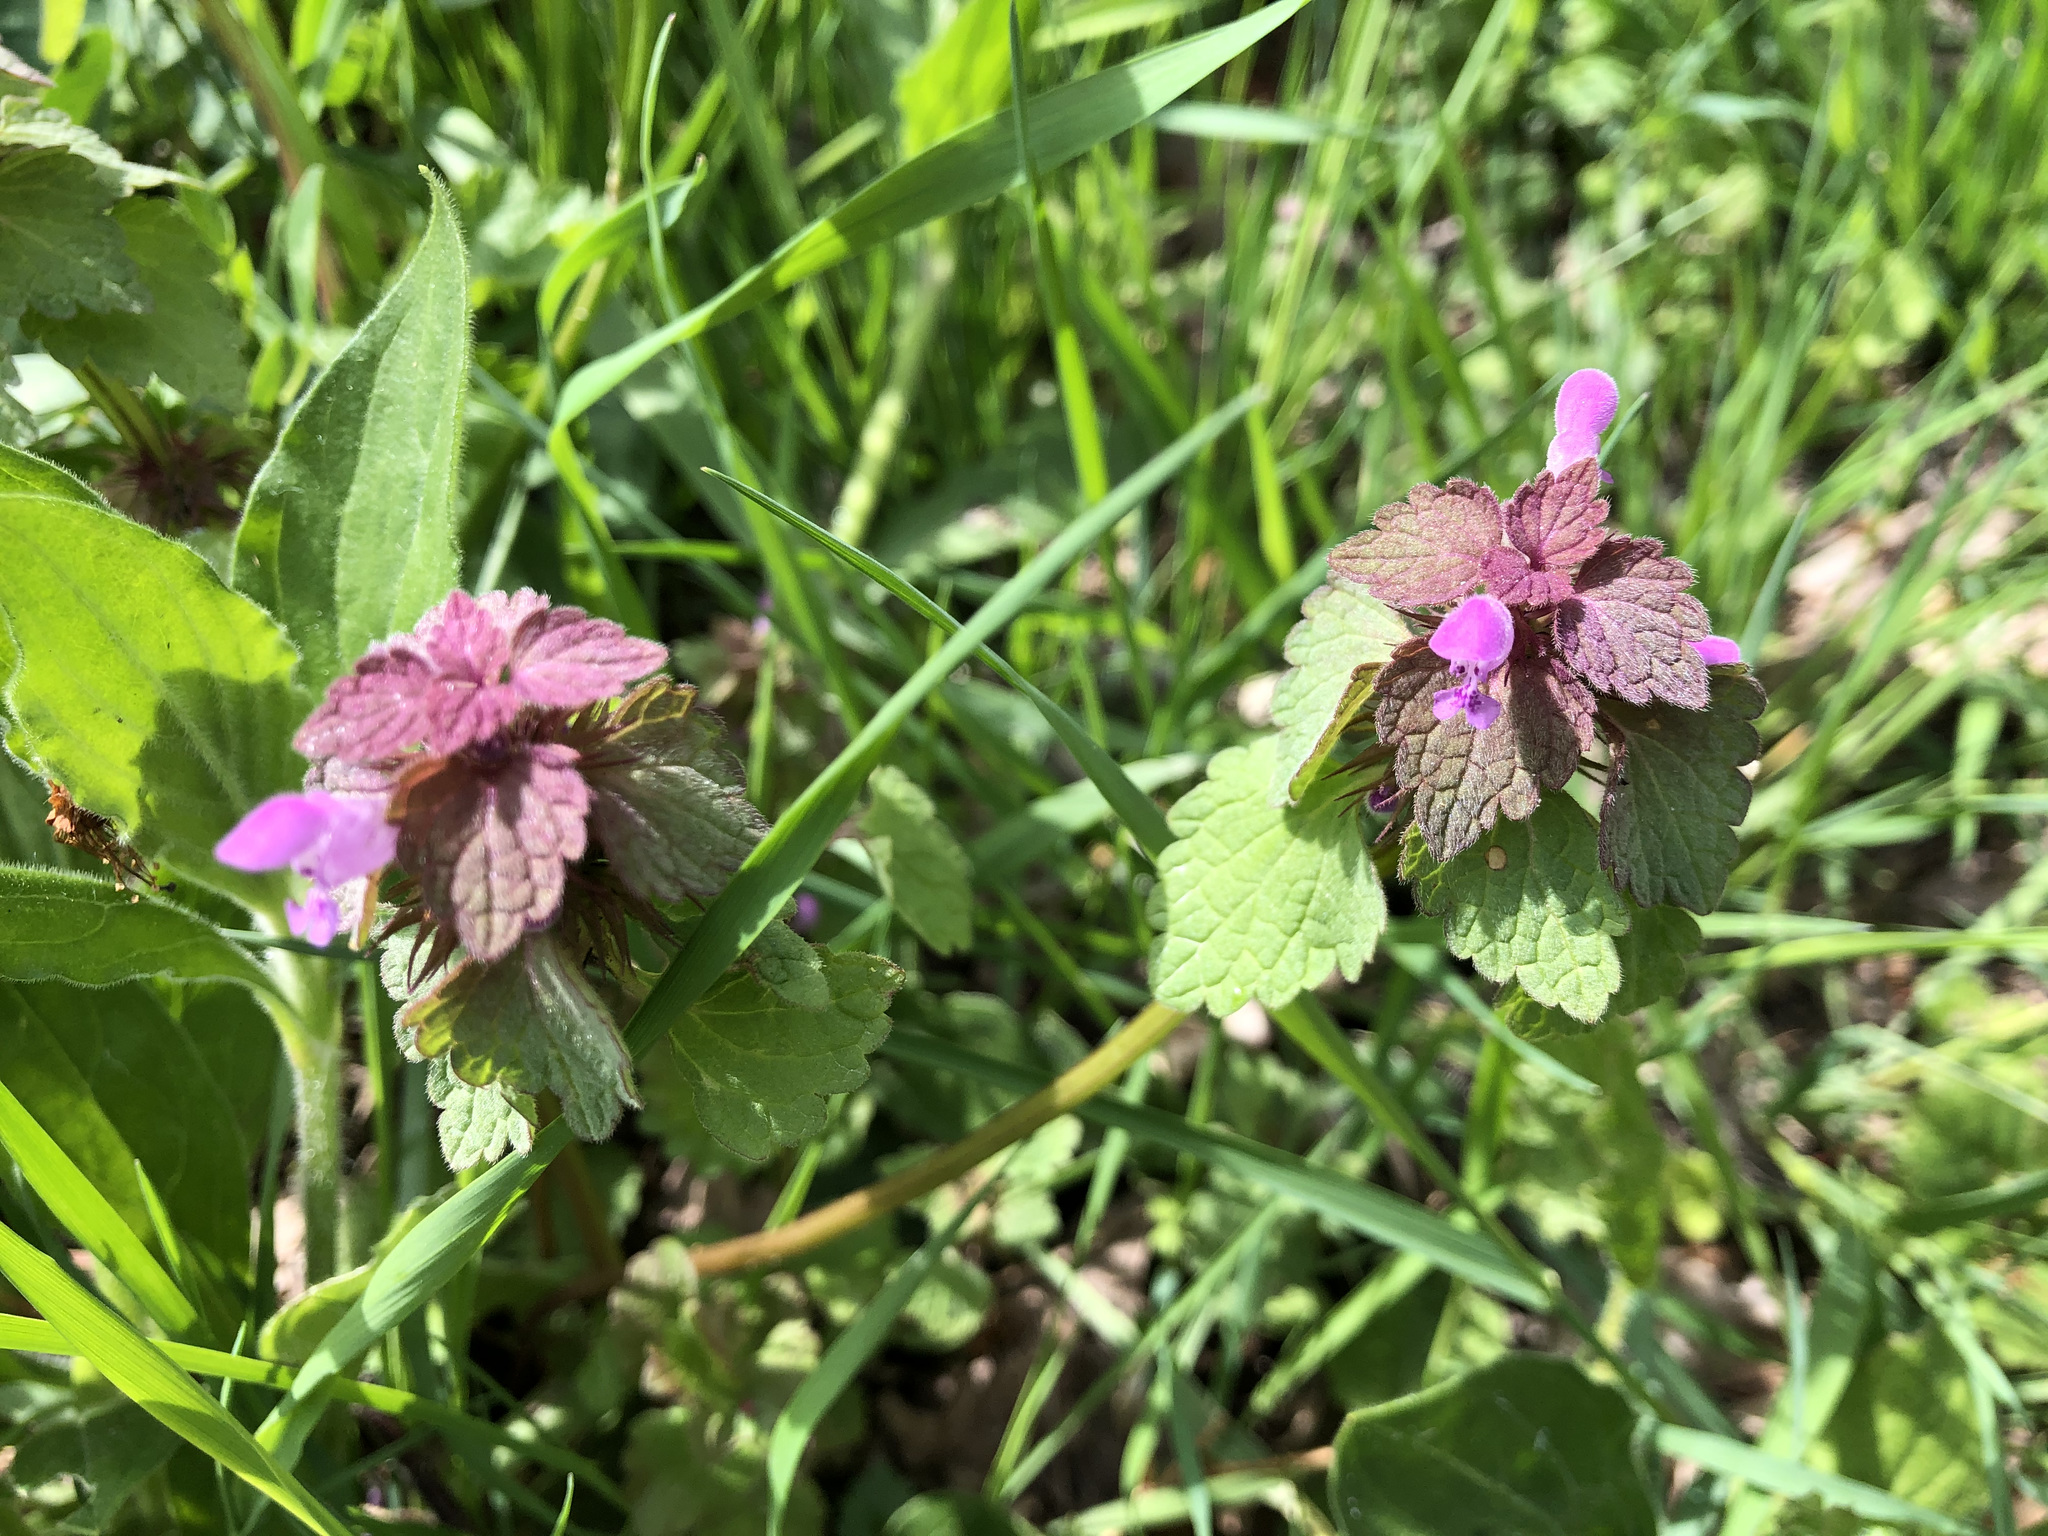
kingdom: Plantae
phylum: Tracheophyta
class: Magnoliopsida
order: Lamiales
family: Lamiaceae
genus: Lamium
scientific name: Lamium purpureum
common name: Red dead-nettle
